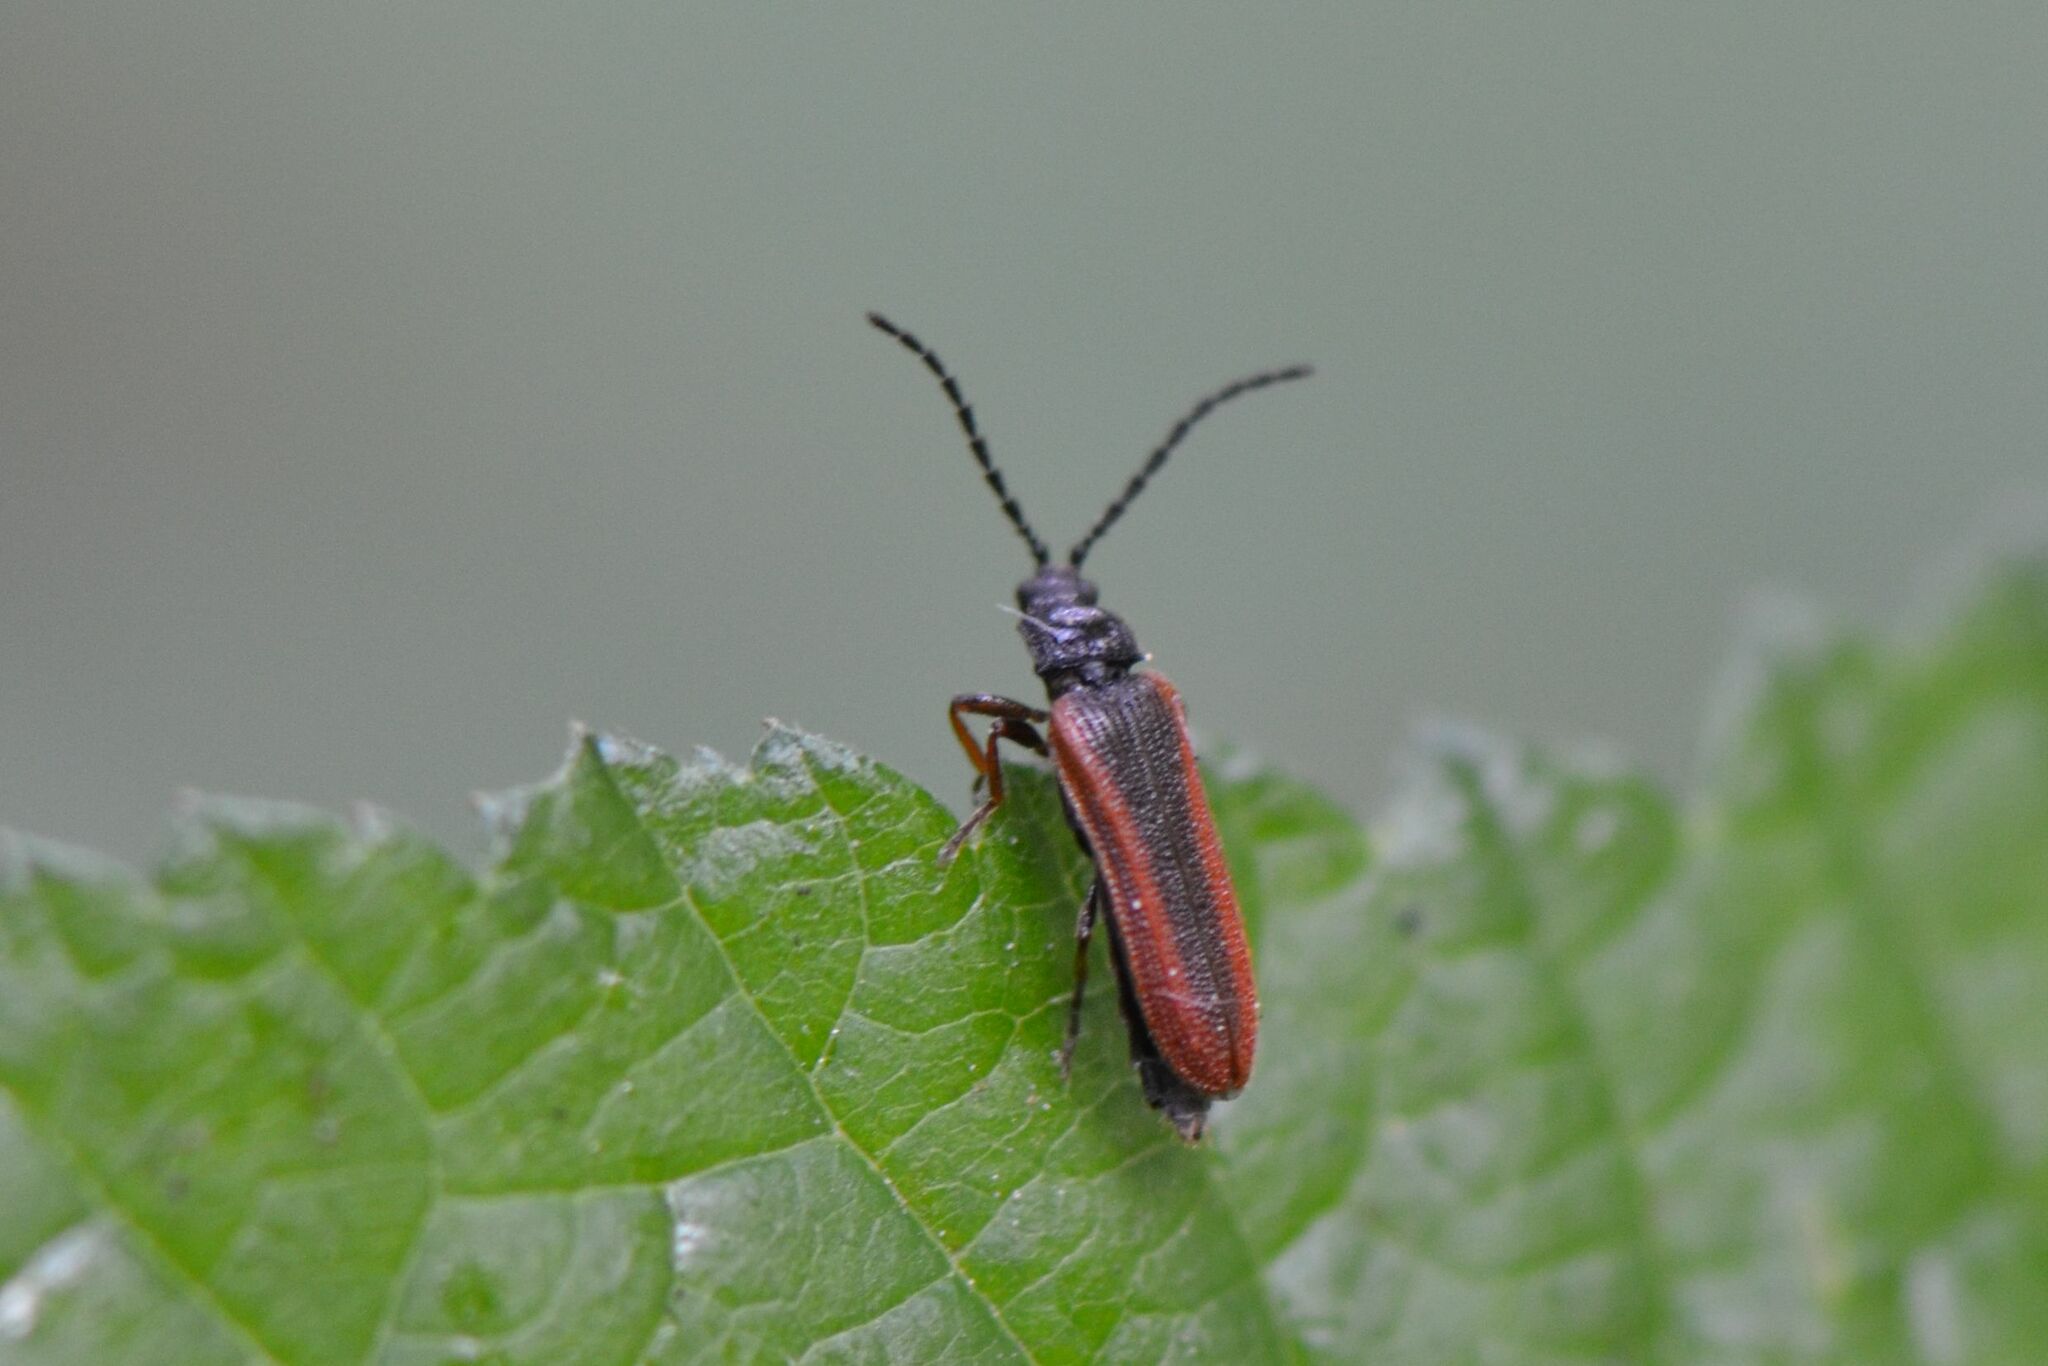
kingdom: Animalia
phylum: Arthropoda
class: Insecta
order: Coleoptera
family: Omalisidae
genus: Omalisus
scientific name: Omalisus fontisbellaquei
